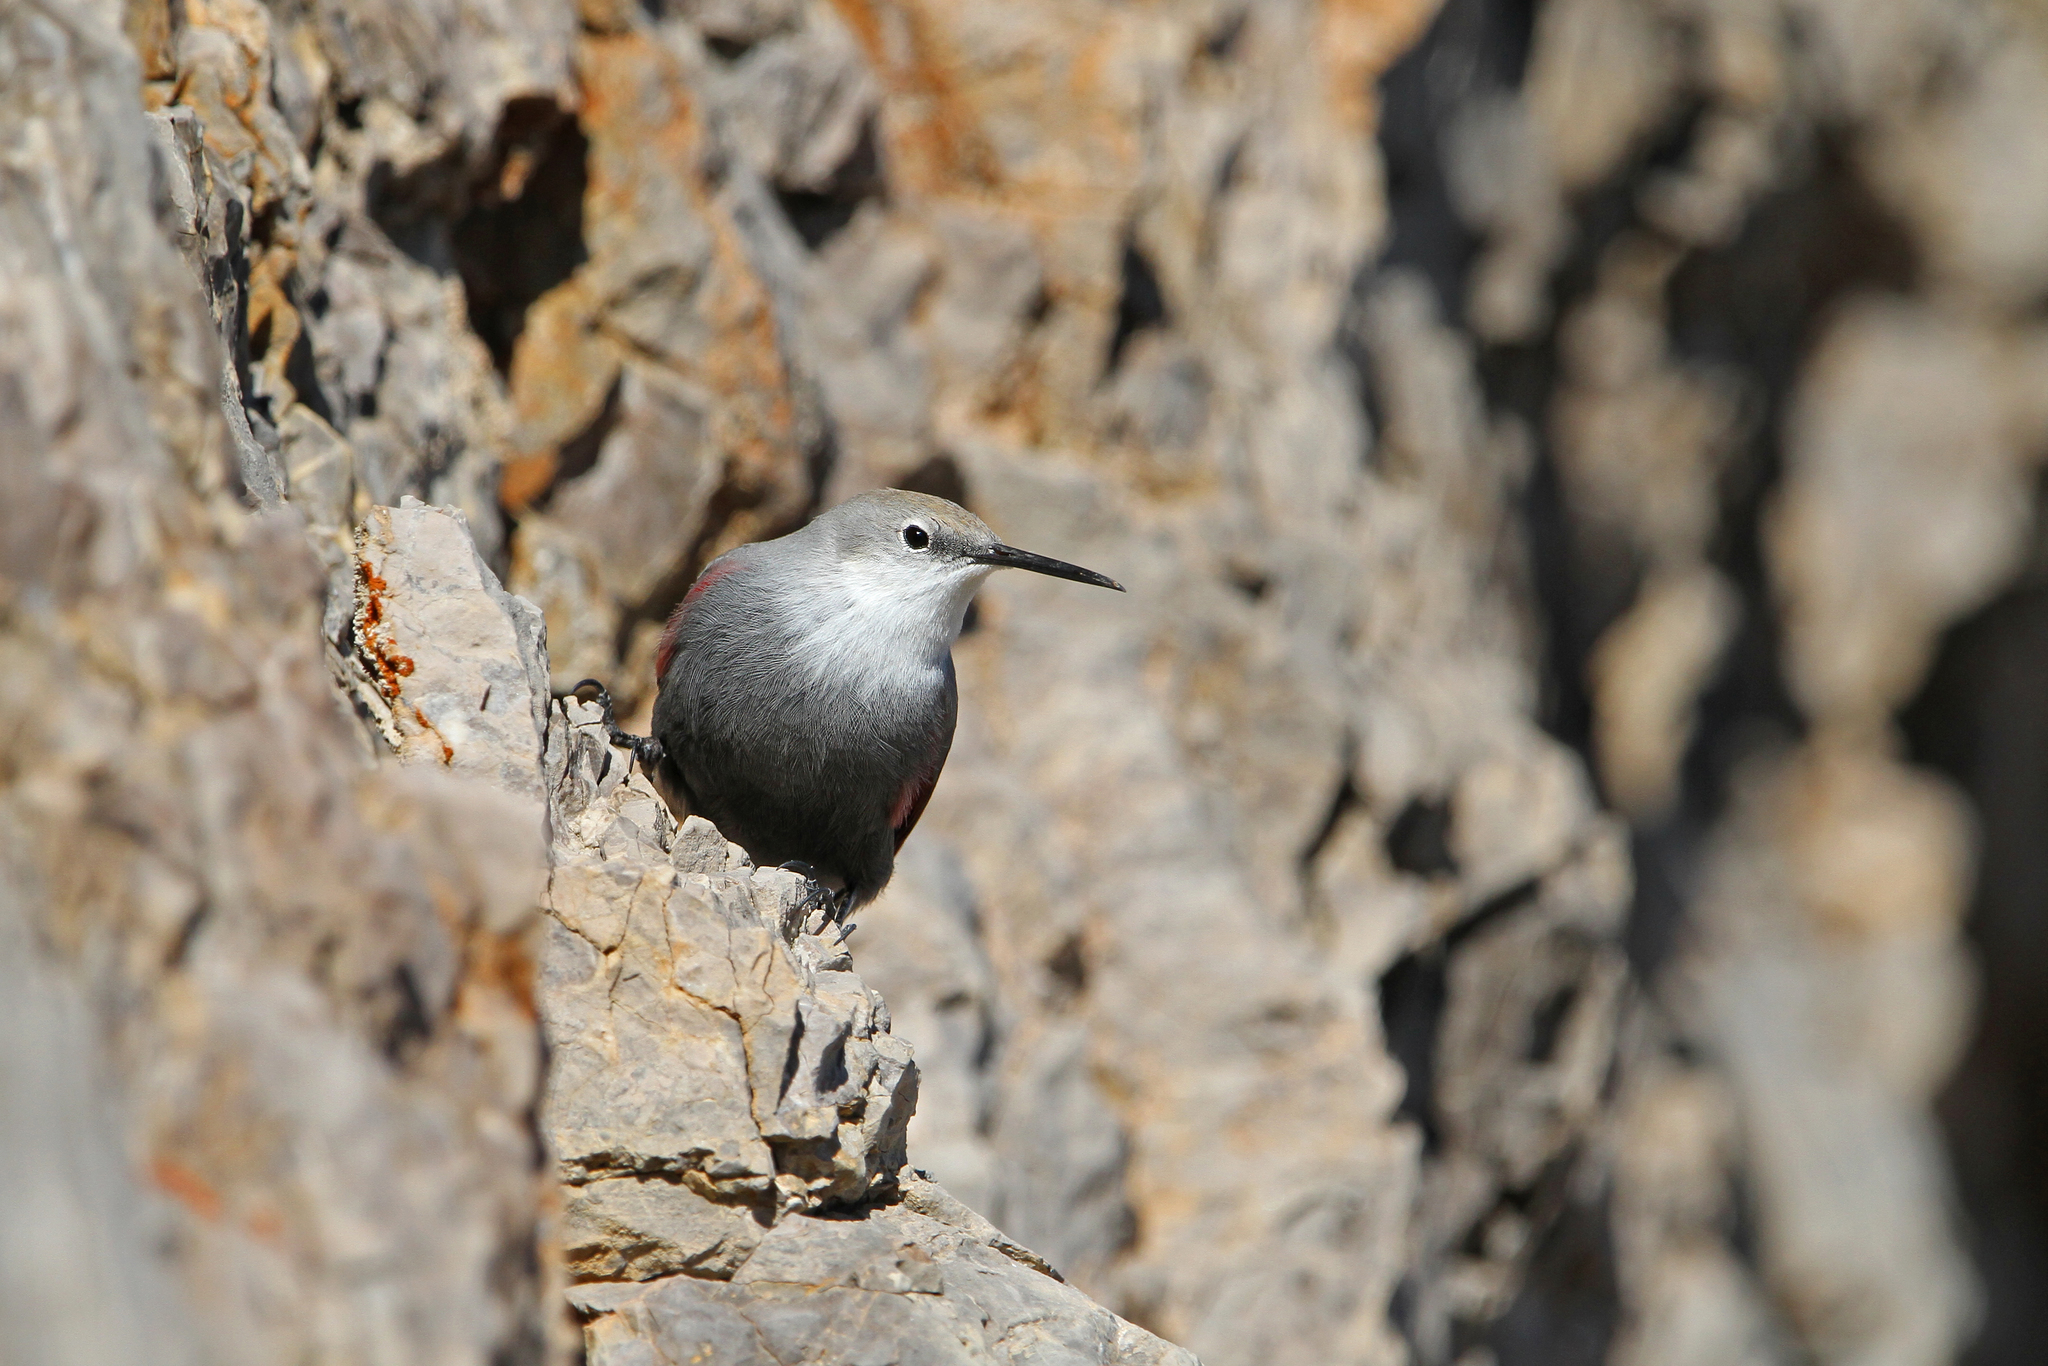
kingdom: Animalia
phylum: Chordata
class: Aves
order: Passeriformes
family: Tichodromidae
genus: Tichodroma
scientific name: Tichodroma muraria
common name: Wallcreeper
